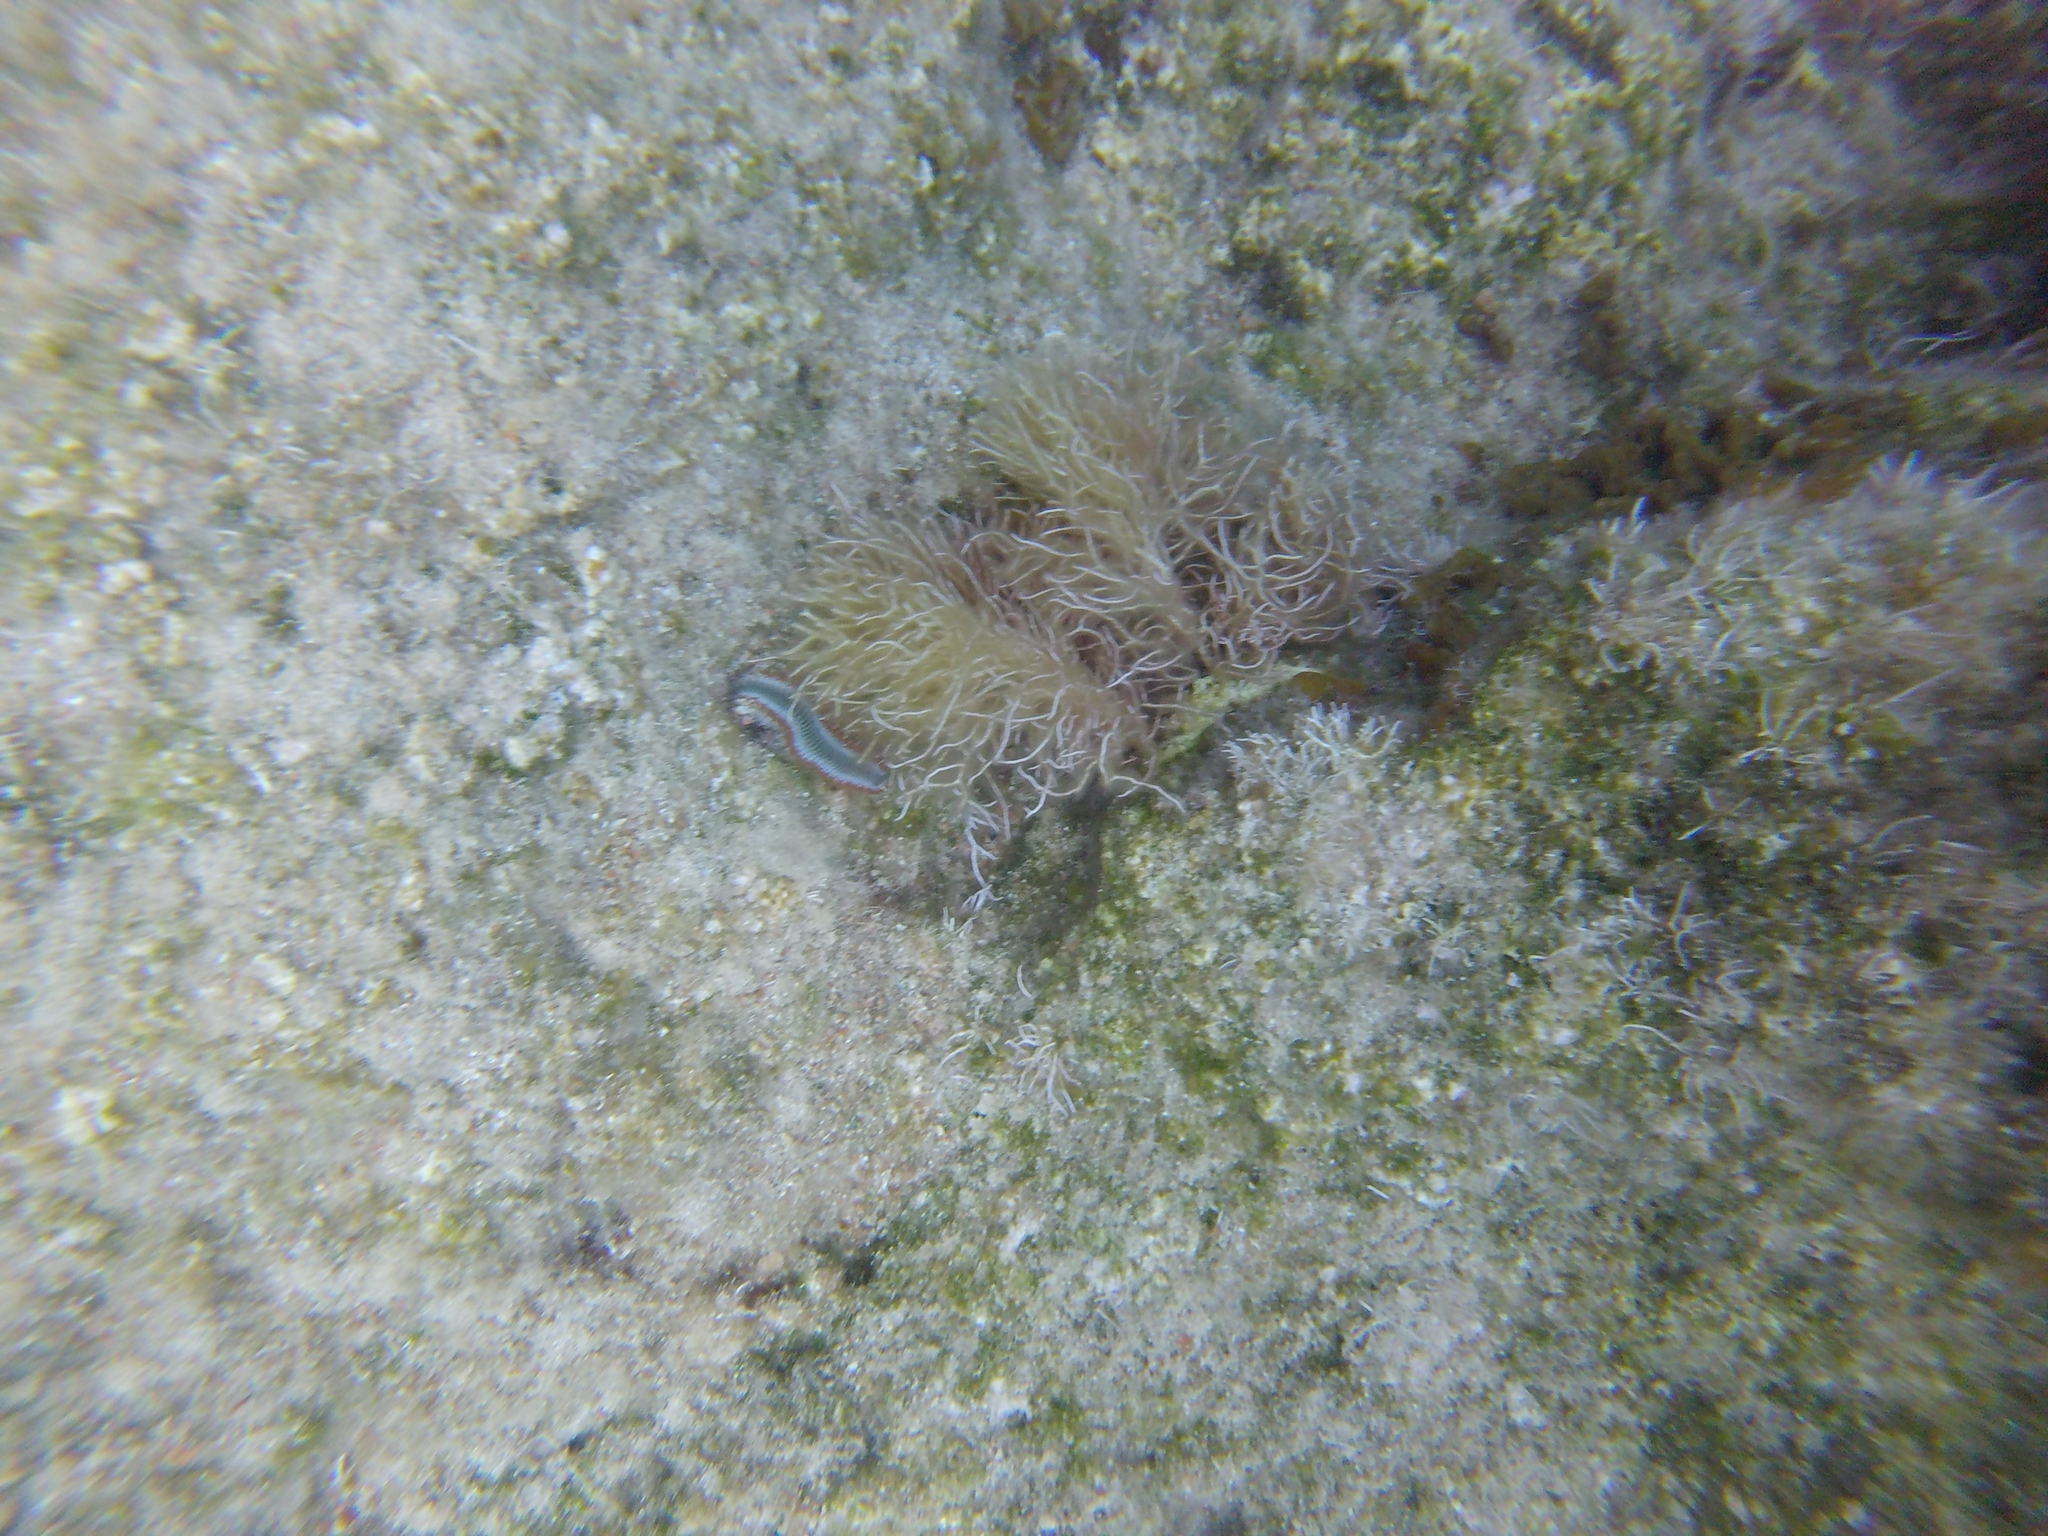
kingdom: Animalia
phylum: Annelida
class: Polychaeta
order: Amphinomida
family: Amphinomidae
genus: Hermodice
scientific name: Hermodice carunculata
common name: Bearded fireworm
